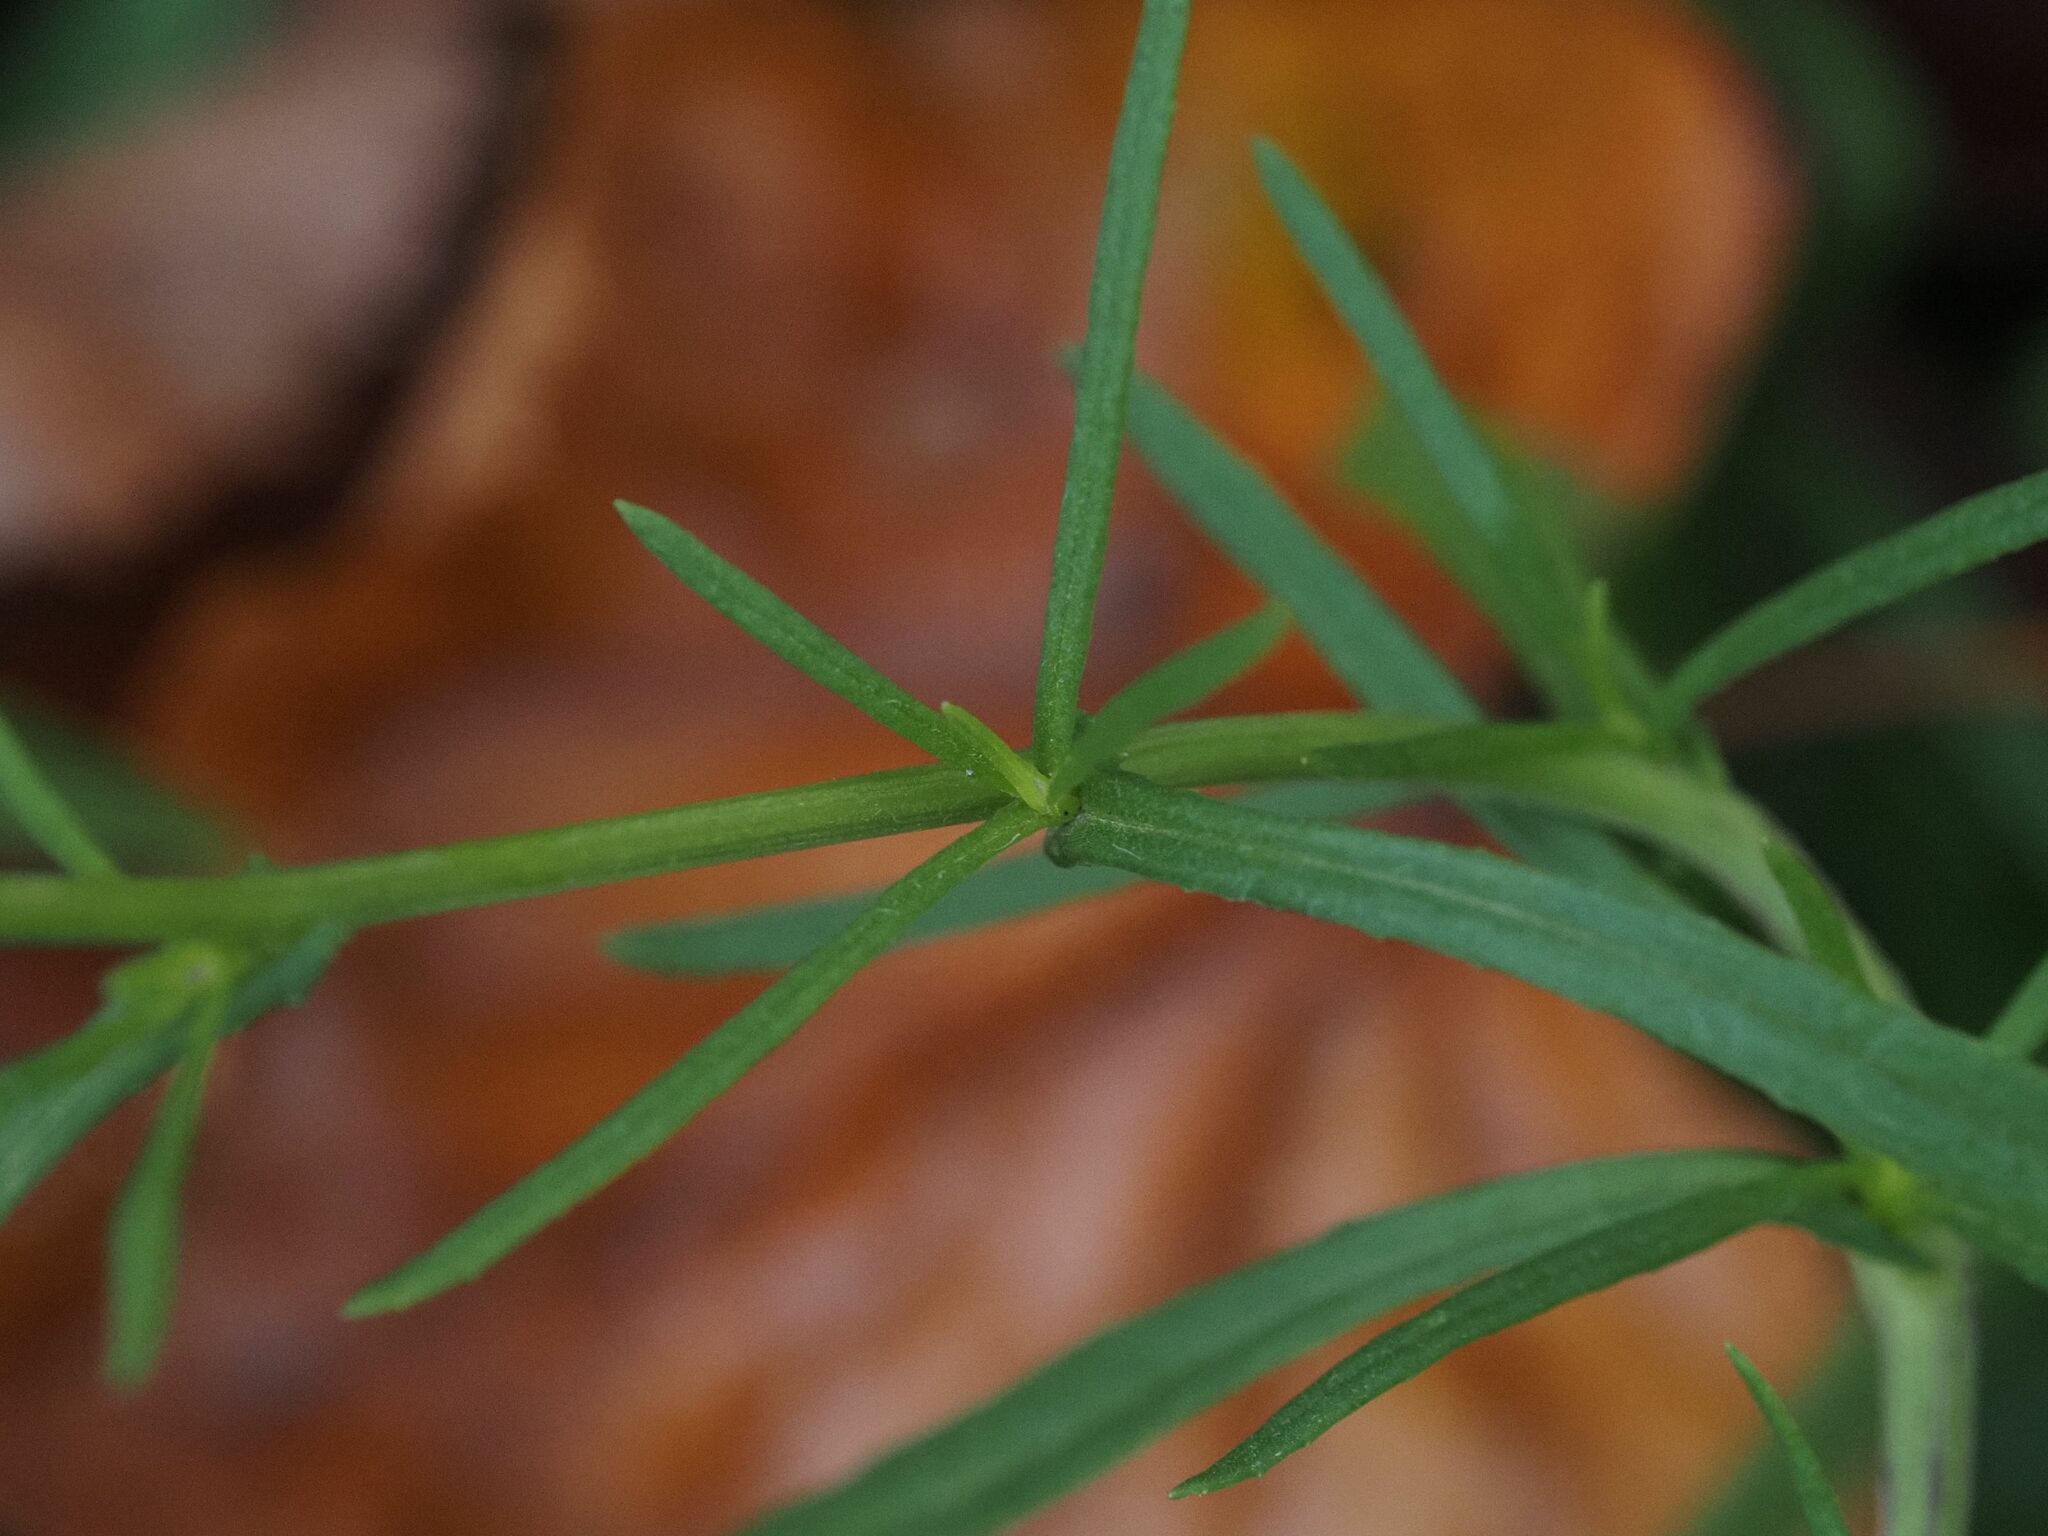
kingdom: Plantae
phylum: Tracheophyta
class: Magnoliopsida
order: Asterales
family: Asteraceae
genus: Senecio
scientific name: Senecio inaequidens
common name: Narrow-leaved ragwort
